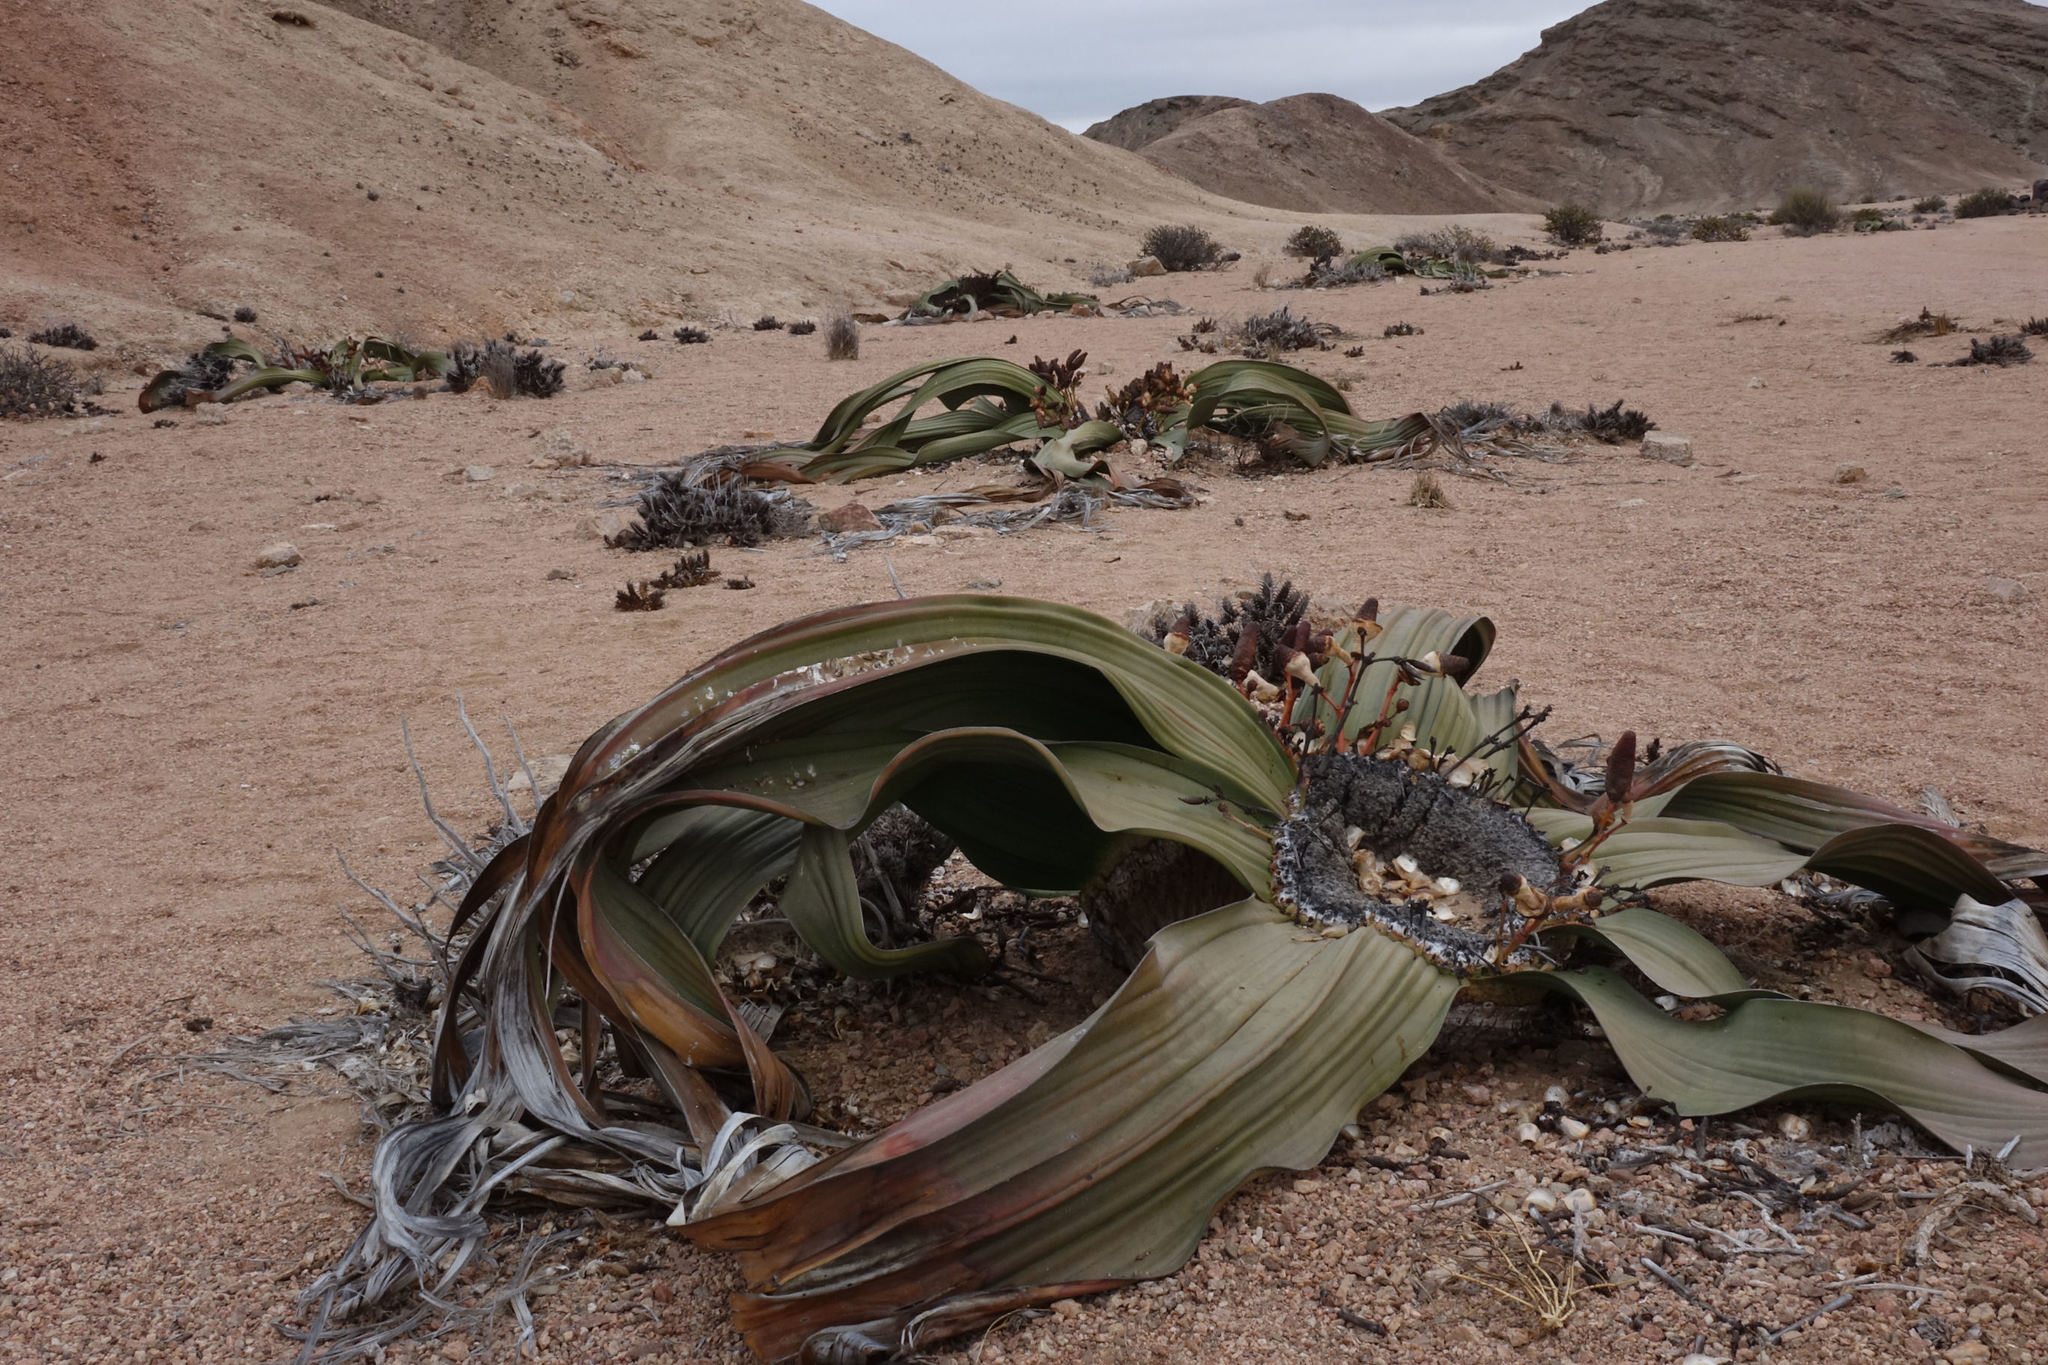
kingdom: Plantae
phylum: Tracheophyta
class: Gnetopsida
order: Welwitschiales
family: Welwitschiaceae
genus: Welwitschia
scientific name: Welwitschia mirabilis
